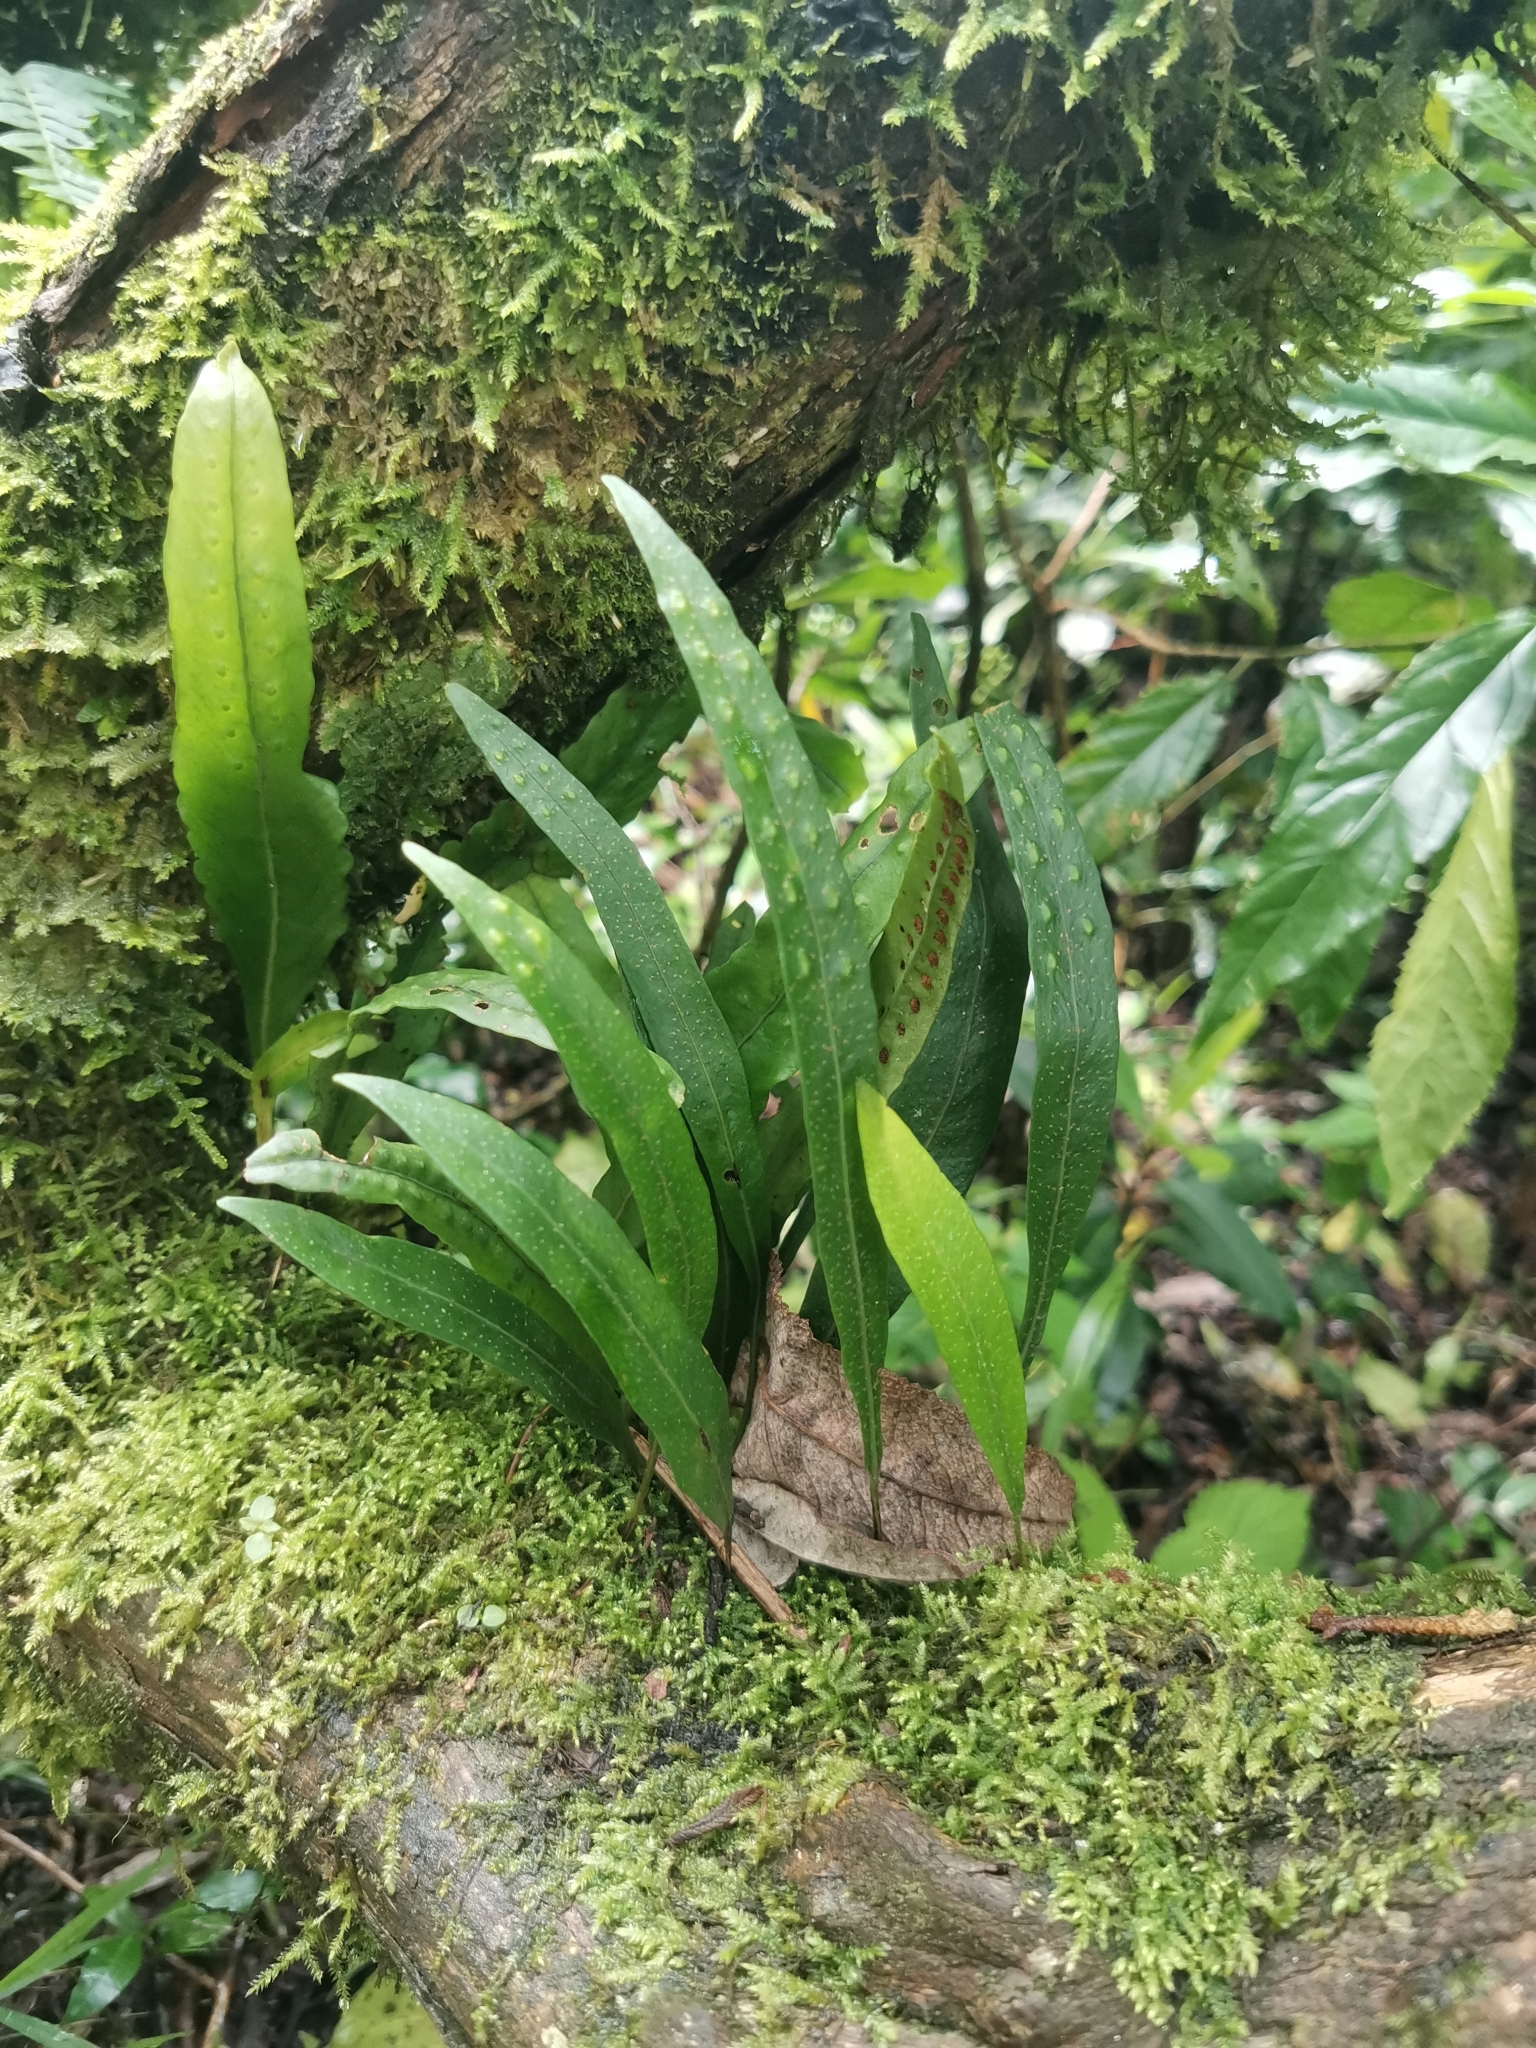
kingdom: Plantae
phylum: Tracheophyta
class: Polypodiopsida
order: Polypodiales
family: Polypodiaceae
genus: Pleopeltis
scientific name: Pleopeltis macrocarpa
